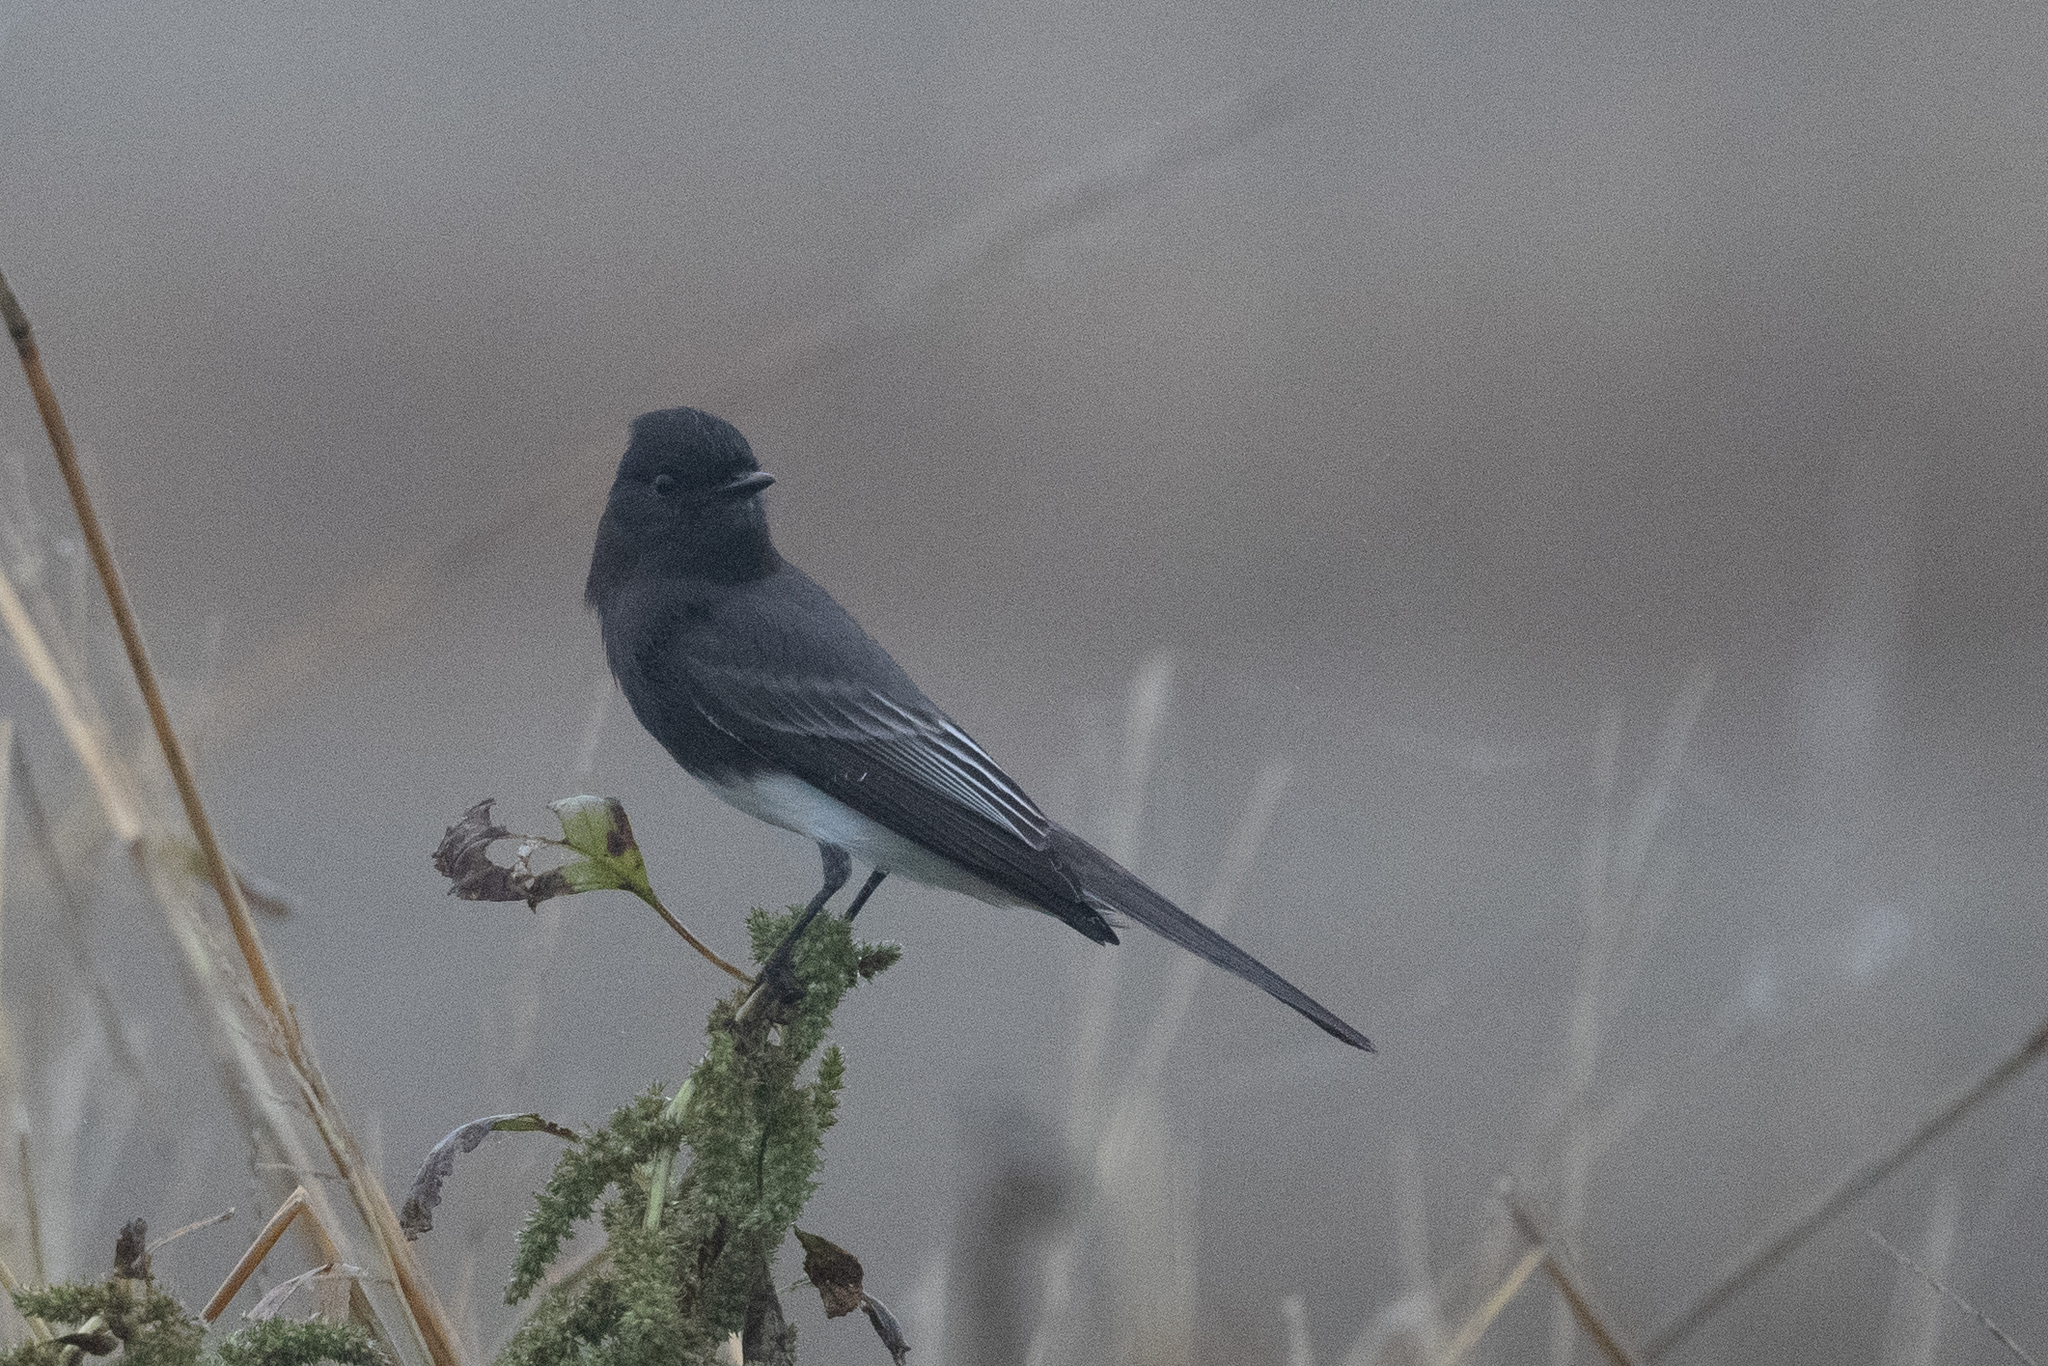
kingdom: Animalia
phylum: Chordata
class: Aves
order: Passeriformes
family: Tyrannidae
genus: Sayornis
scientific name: Sayornis nigricans
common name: Black phoebe
